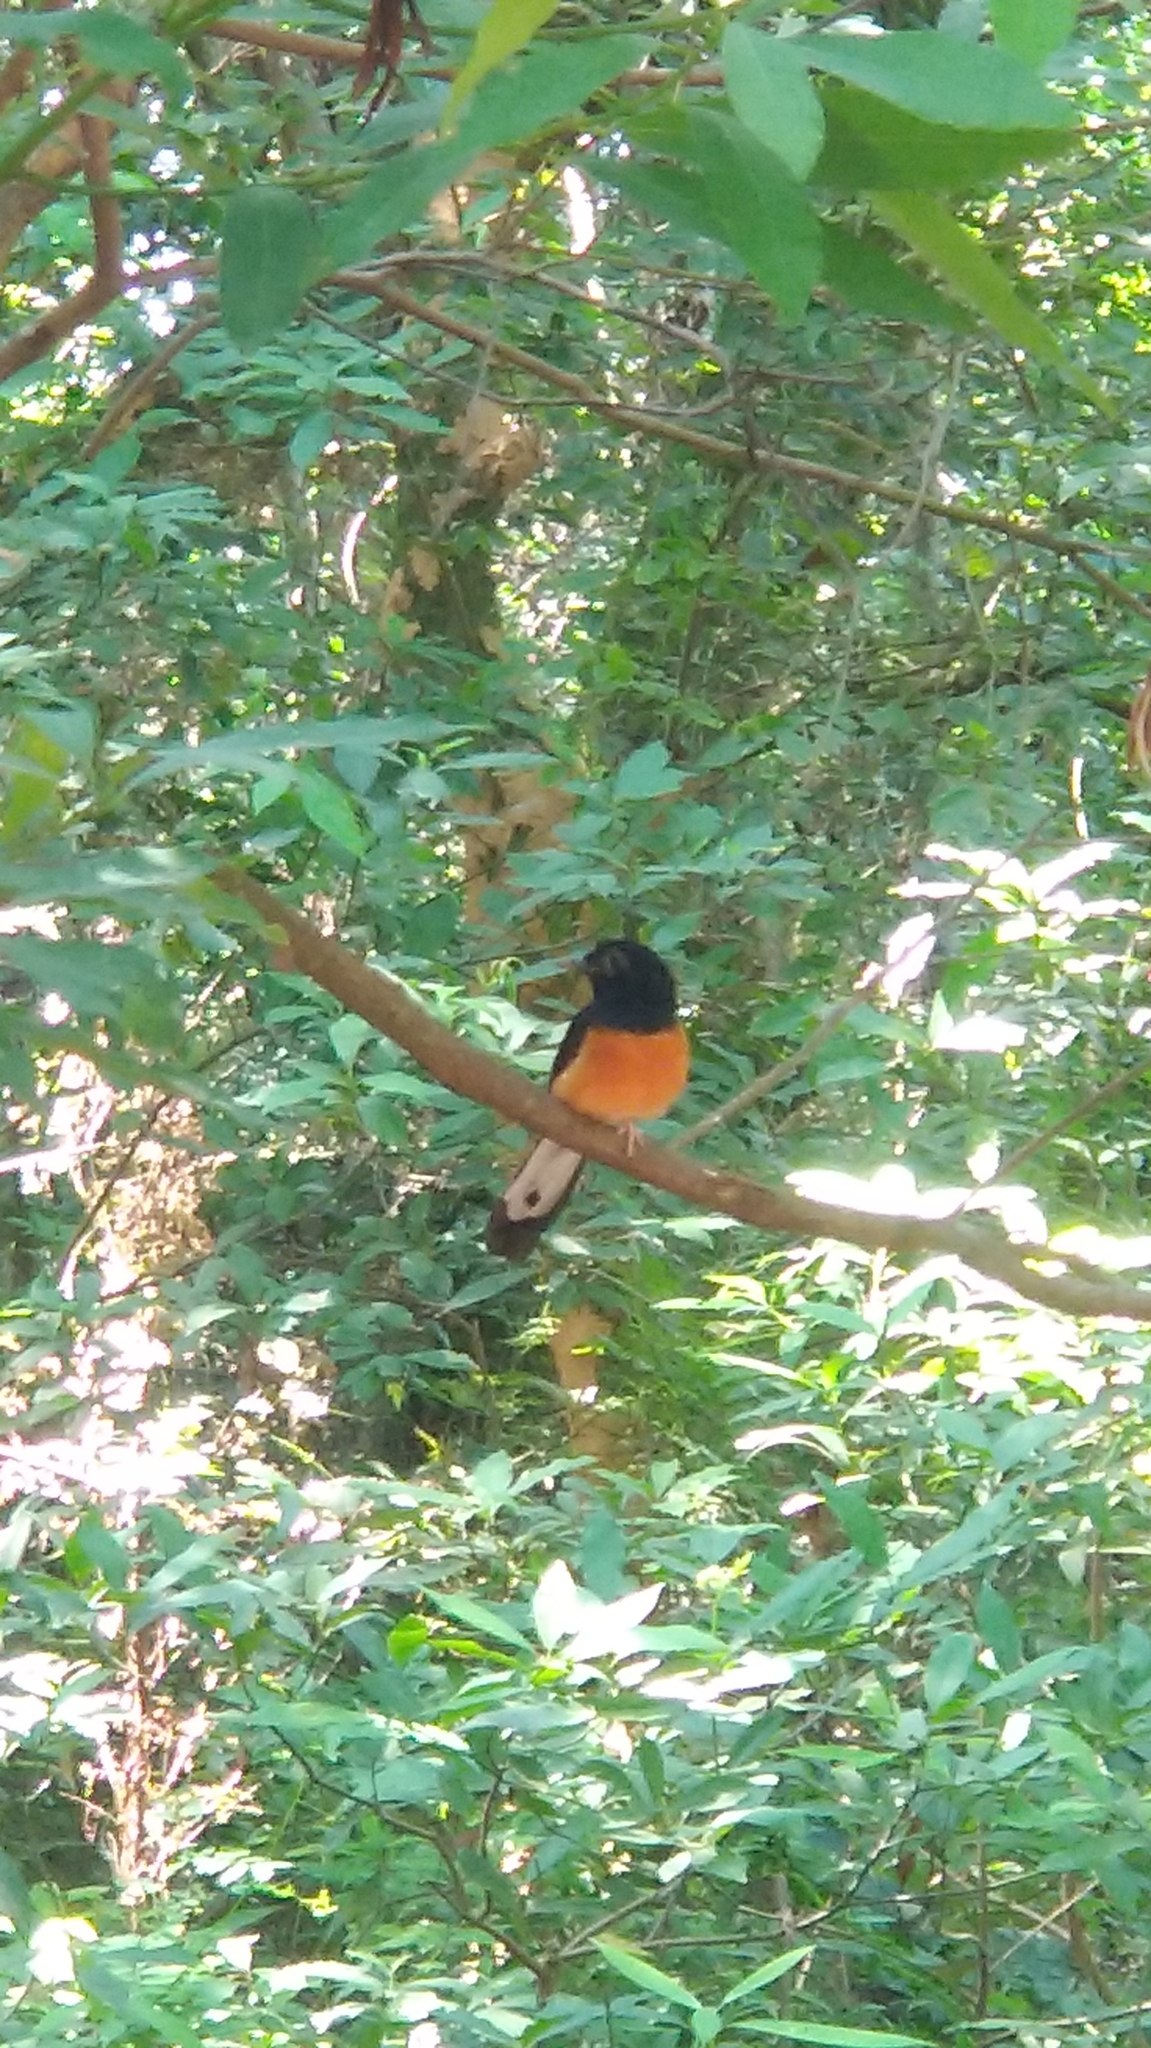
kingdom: Animalia
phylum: Chordata
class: Aves
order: Passeriformes
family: Muscicapidae
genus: Copsychus
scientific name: Copsychus malabaricus
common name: White-rumped shama
